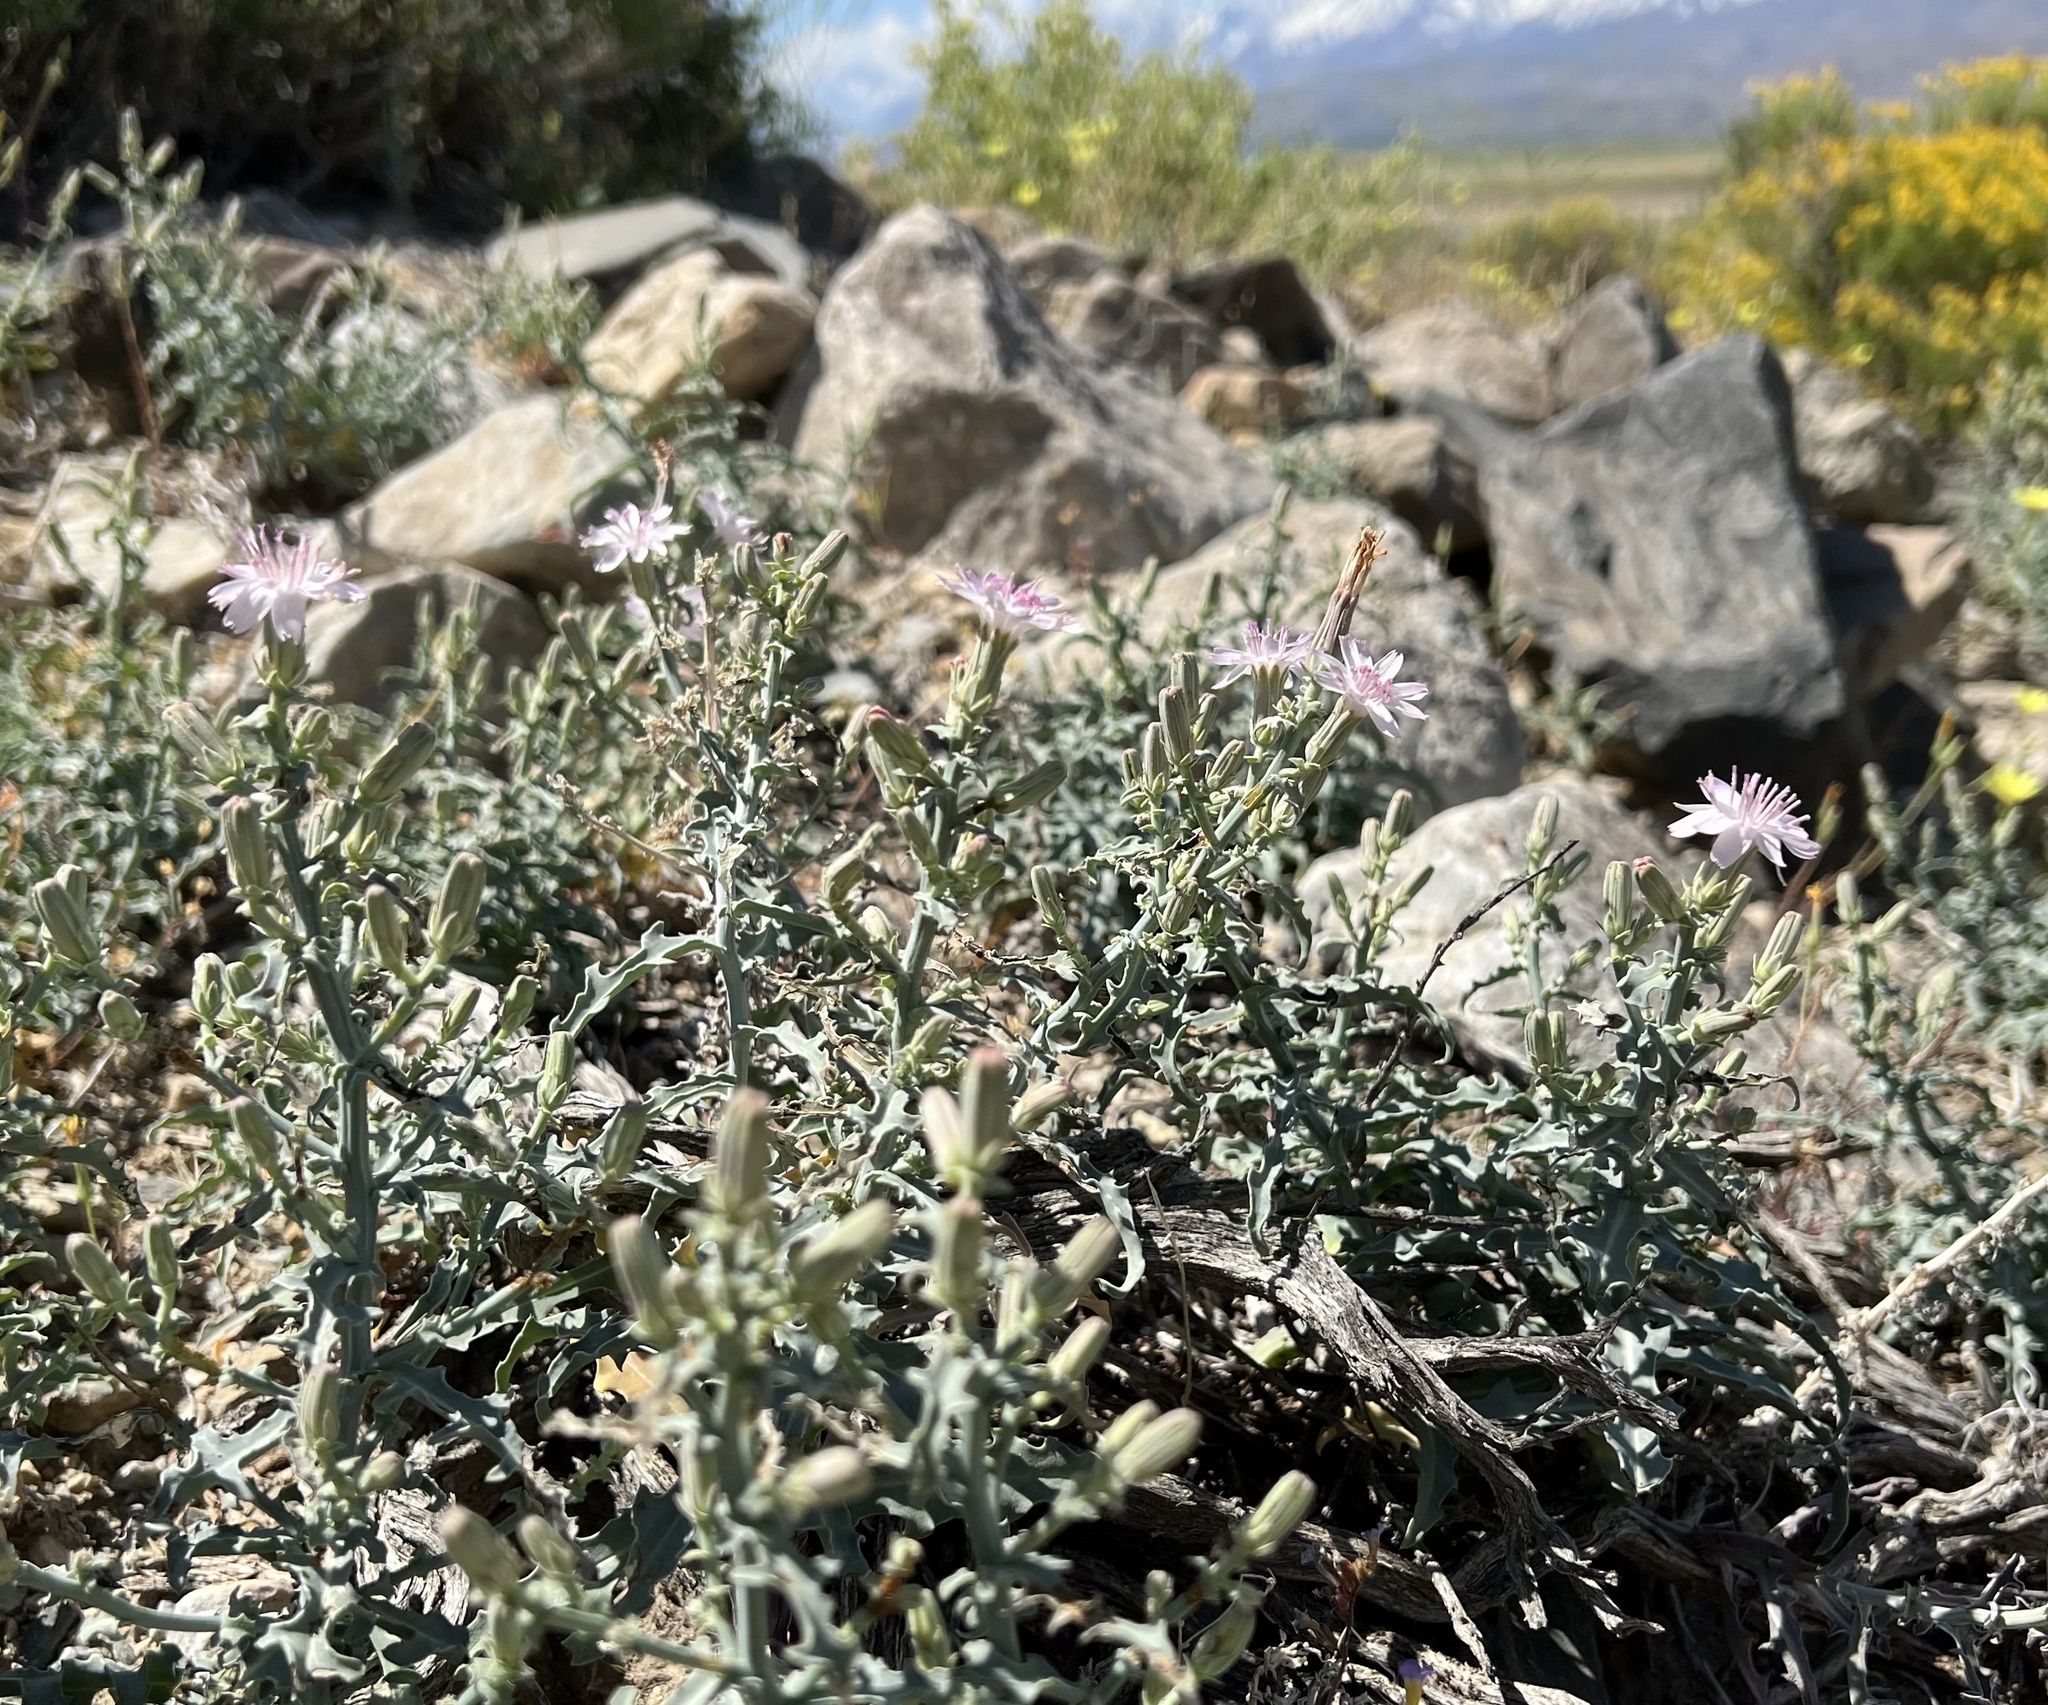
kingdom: Plantae
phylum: Tracheophyta
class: Magnoliopsida
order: Asterales
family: Asteraceae
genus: Stephanomeria
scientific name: Stephanomeria parryi
